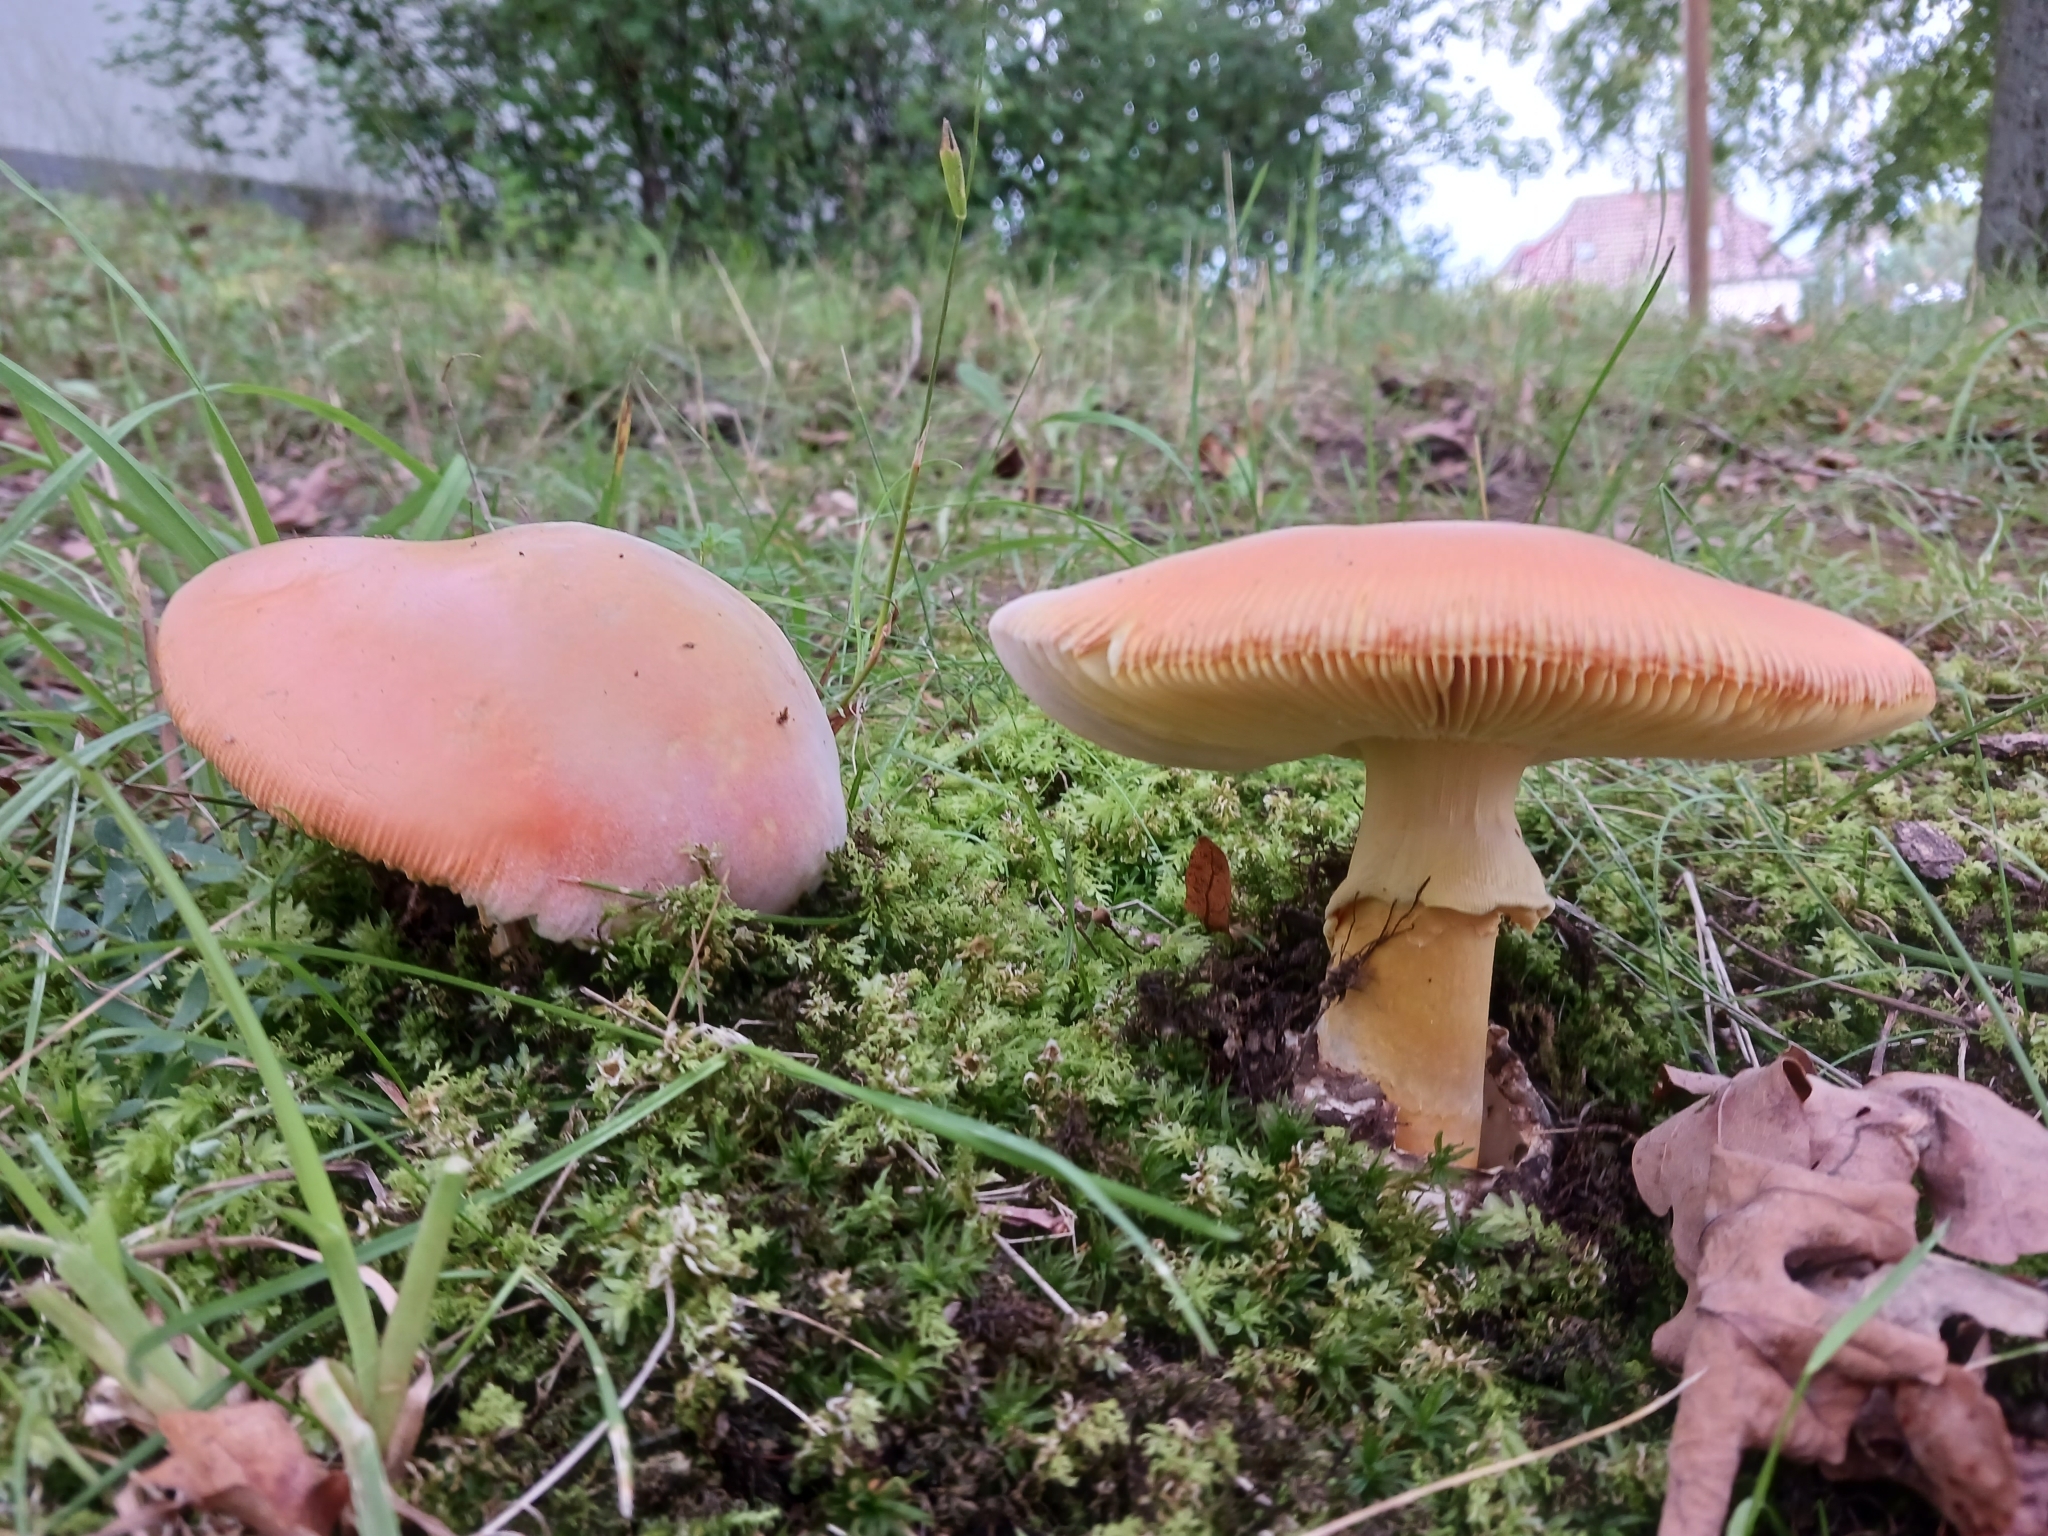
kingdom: Fungi
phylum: Basidiomycota
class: Agaricomycetes
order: Agaricales
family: Amanitaceae
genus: Amanita
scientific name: Amanita caesarea
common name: Caesar's amanita
